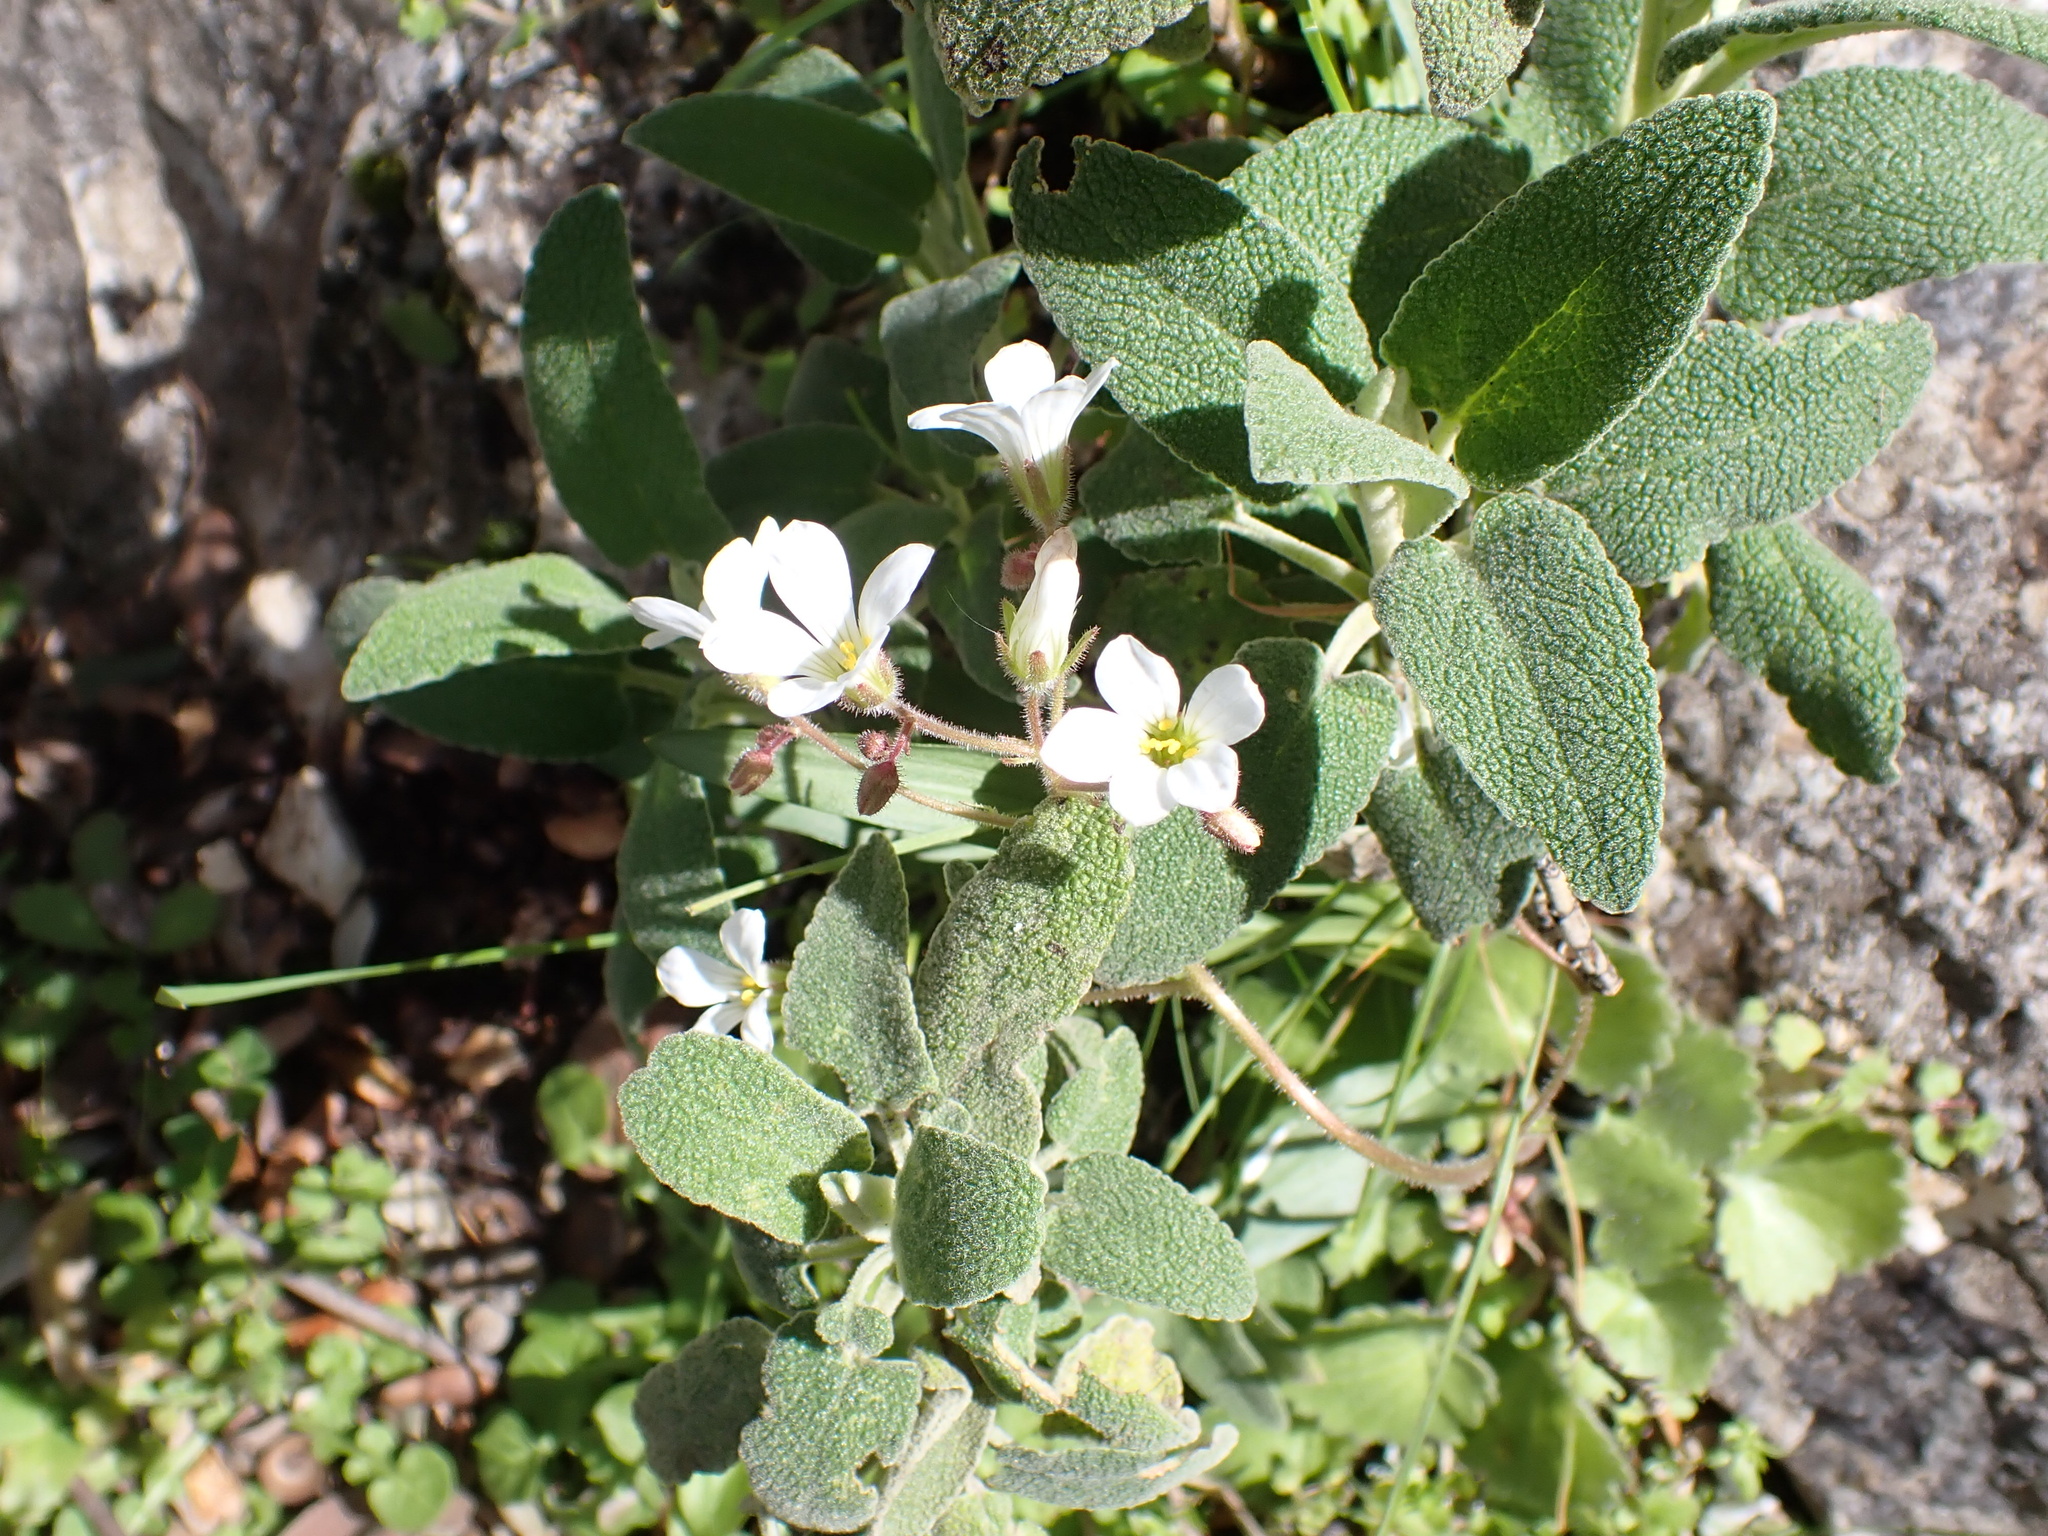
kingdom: Plantae
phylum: Tracheophyta
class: Magnoliopsida
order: Saxifragales
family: Saxifragaceae
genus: Saxifraga
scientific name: Saxifraga granulata
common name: Meadow saxifrage
